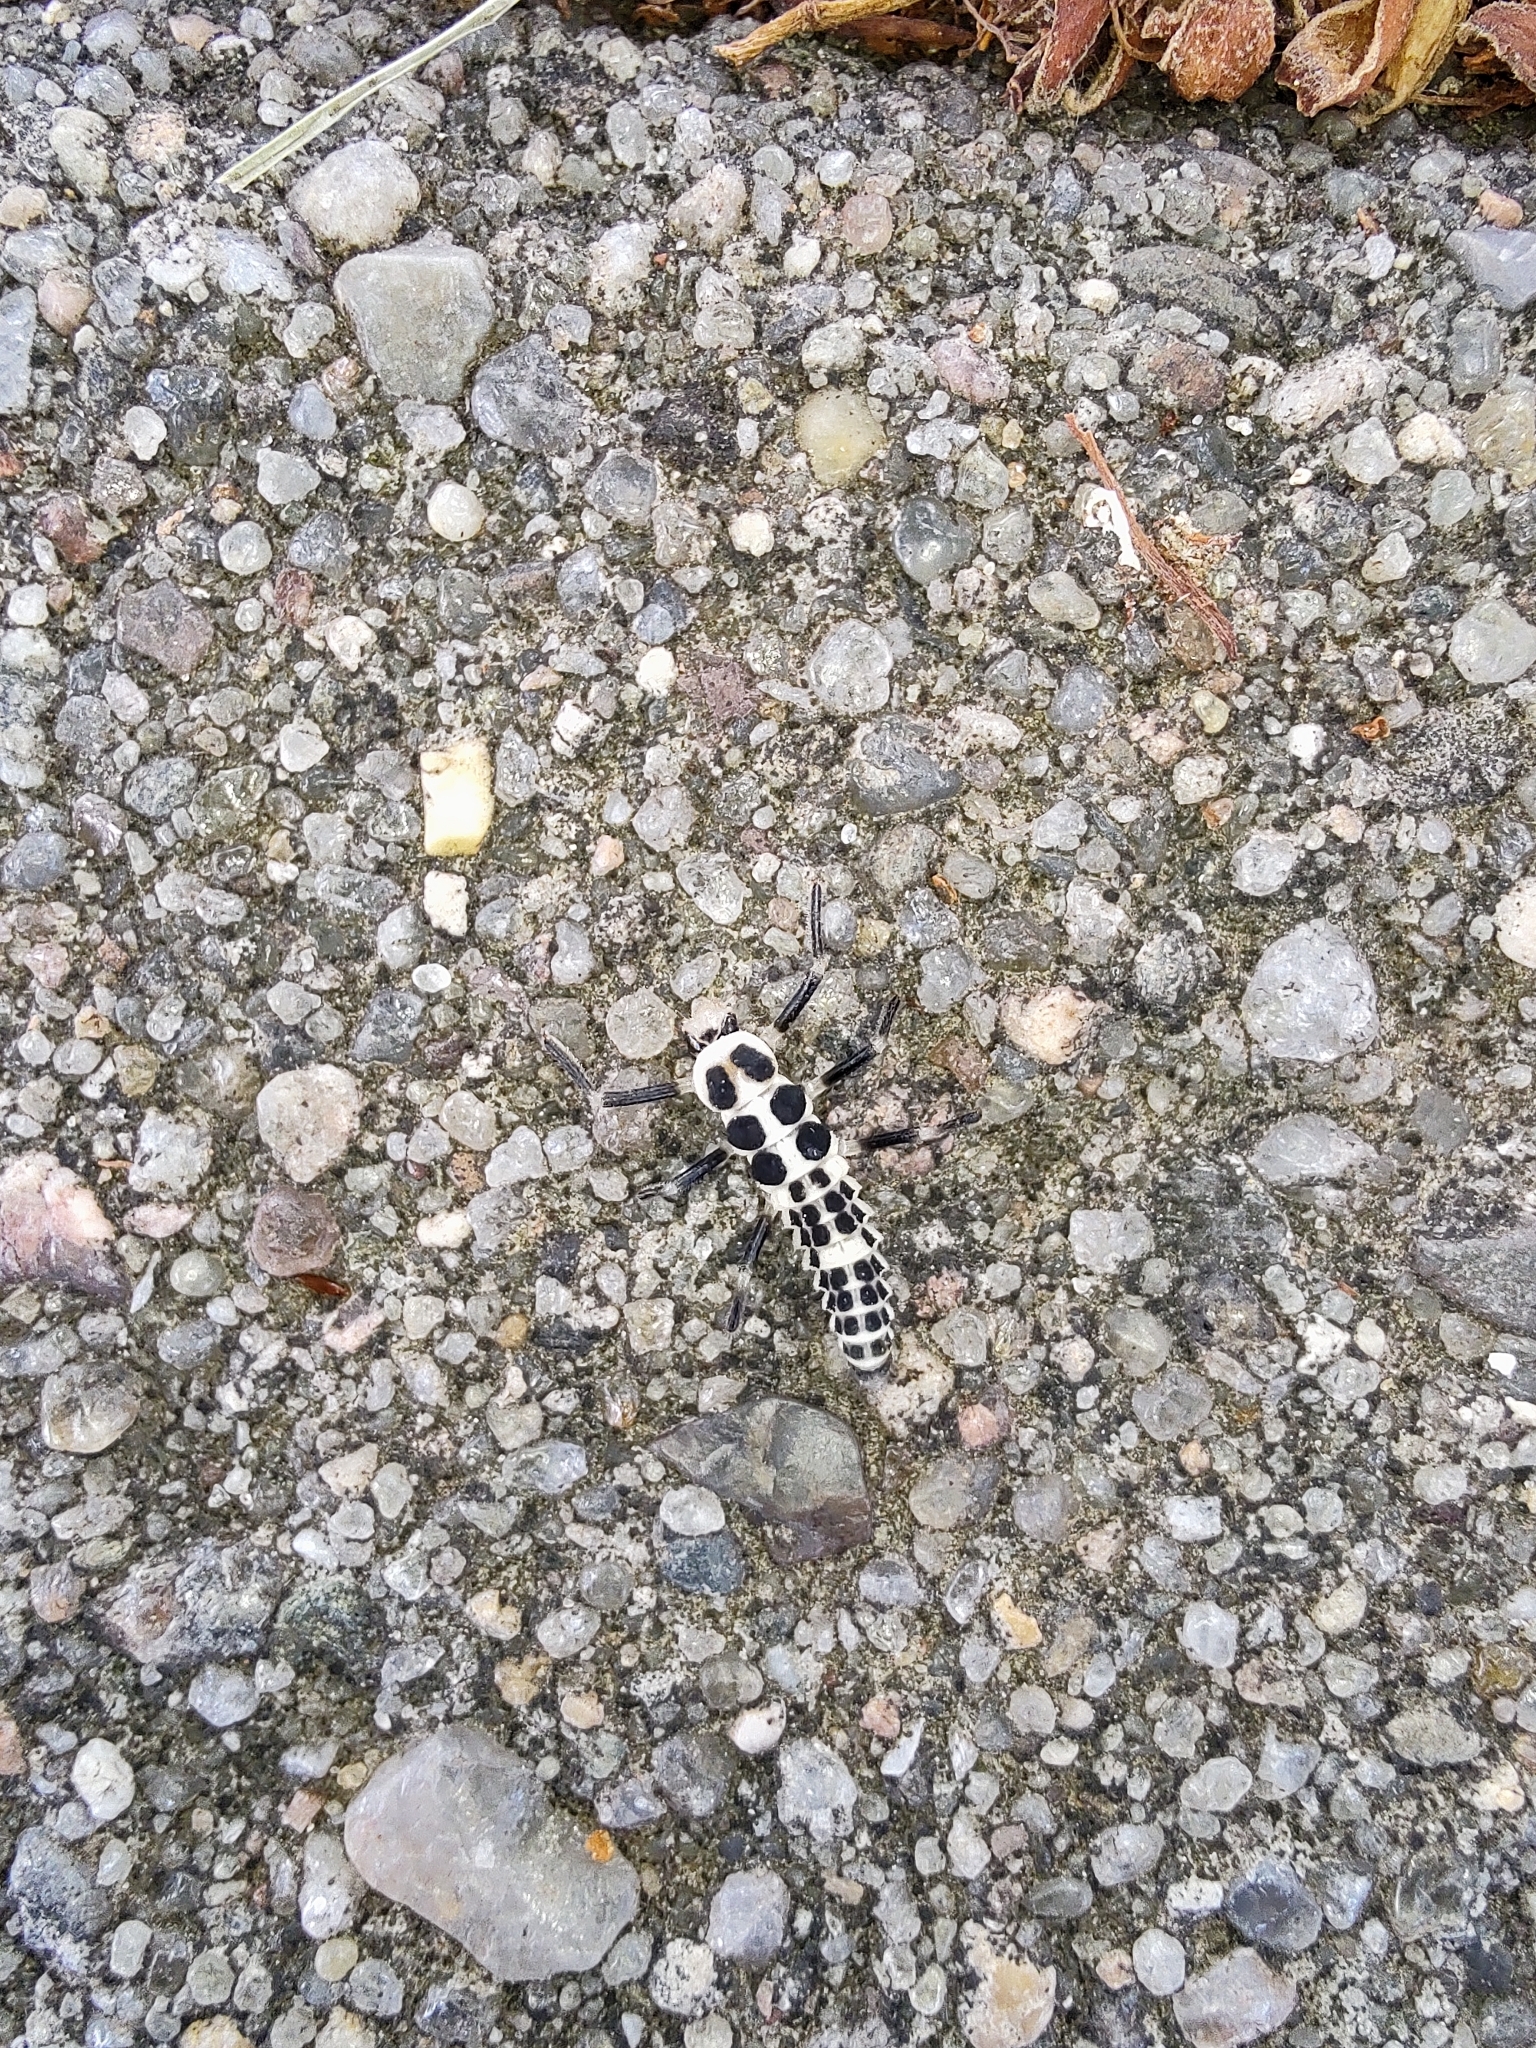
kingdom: Animalia
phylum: Arthropoda
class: Insecta
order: Coleoptera
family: Coccinellidae
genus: Calvia
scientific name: Calvia decemguttata
